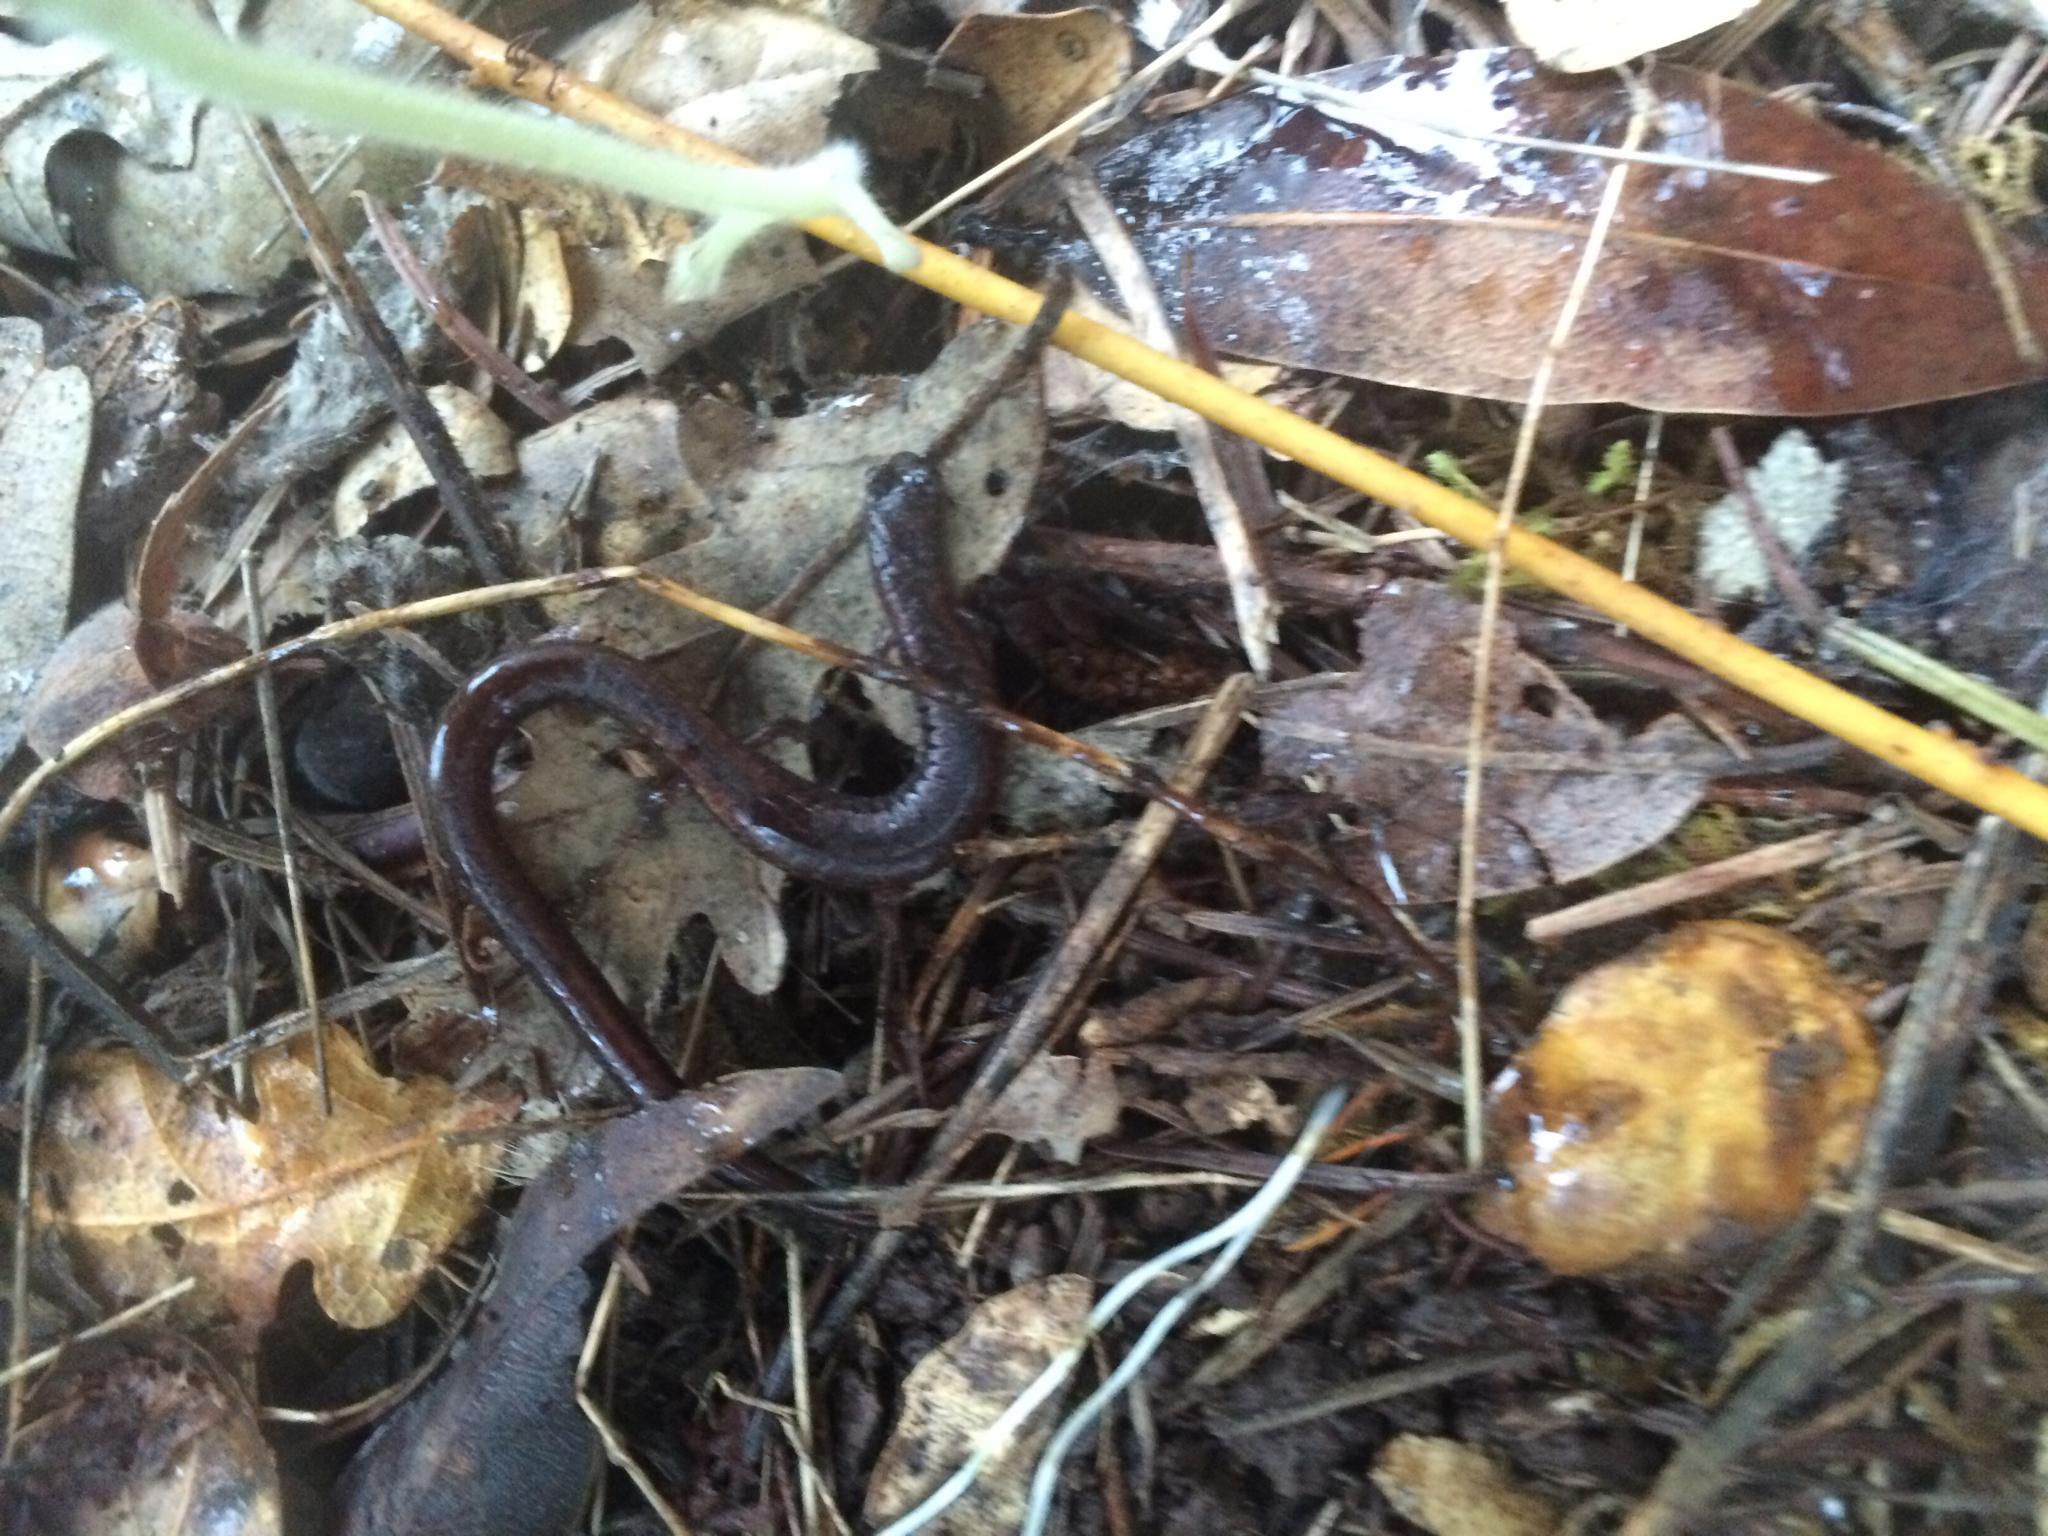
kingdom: Animalia
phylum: Chordata
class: Amphibia
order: Caudata
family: Plethodontidae
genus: Batrachoseps
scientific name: Batrachoseps attenuatus
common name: California slender salamander
